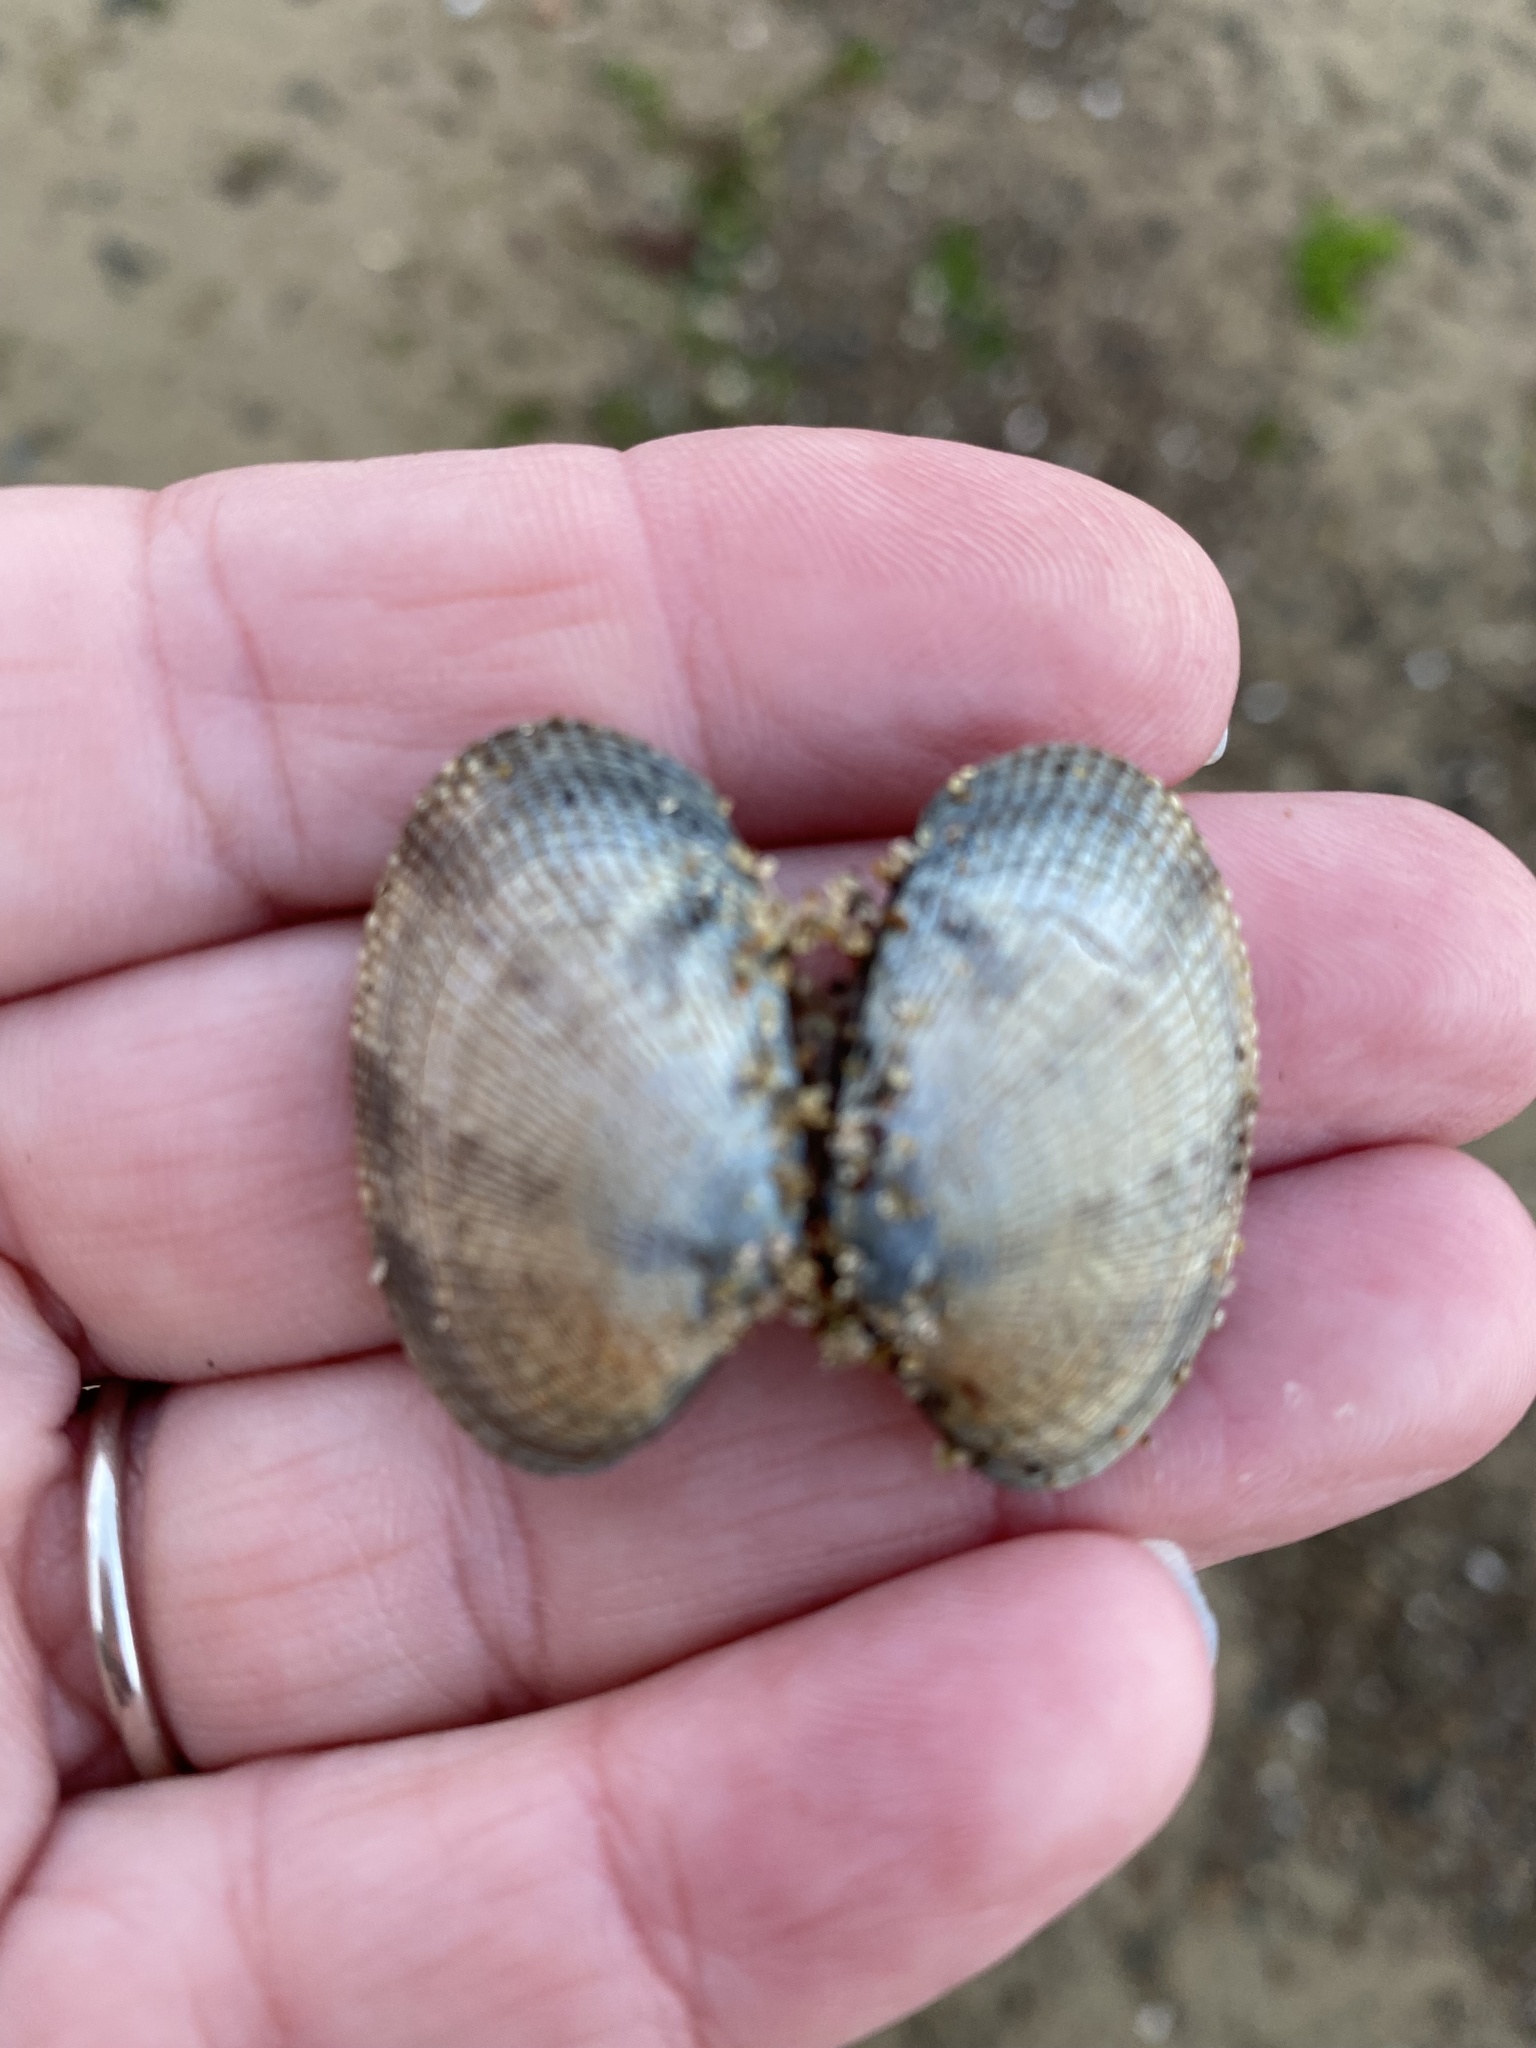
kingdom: Animalia
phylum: Mollusca
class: Bivalvia
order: Venerida
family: Veneridae
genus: Ruditapes
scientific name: Ruditapes philippinarum
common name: Manila clam
